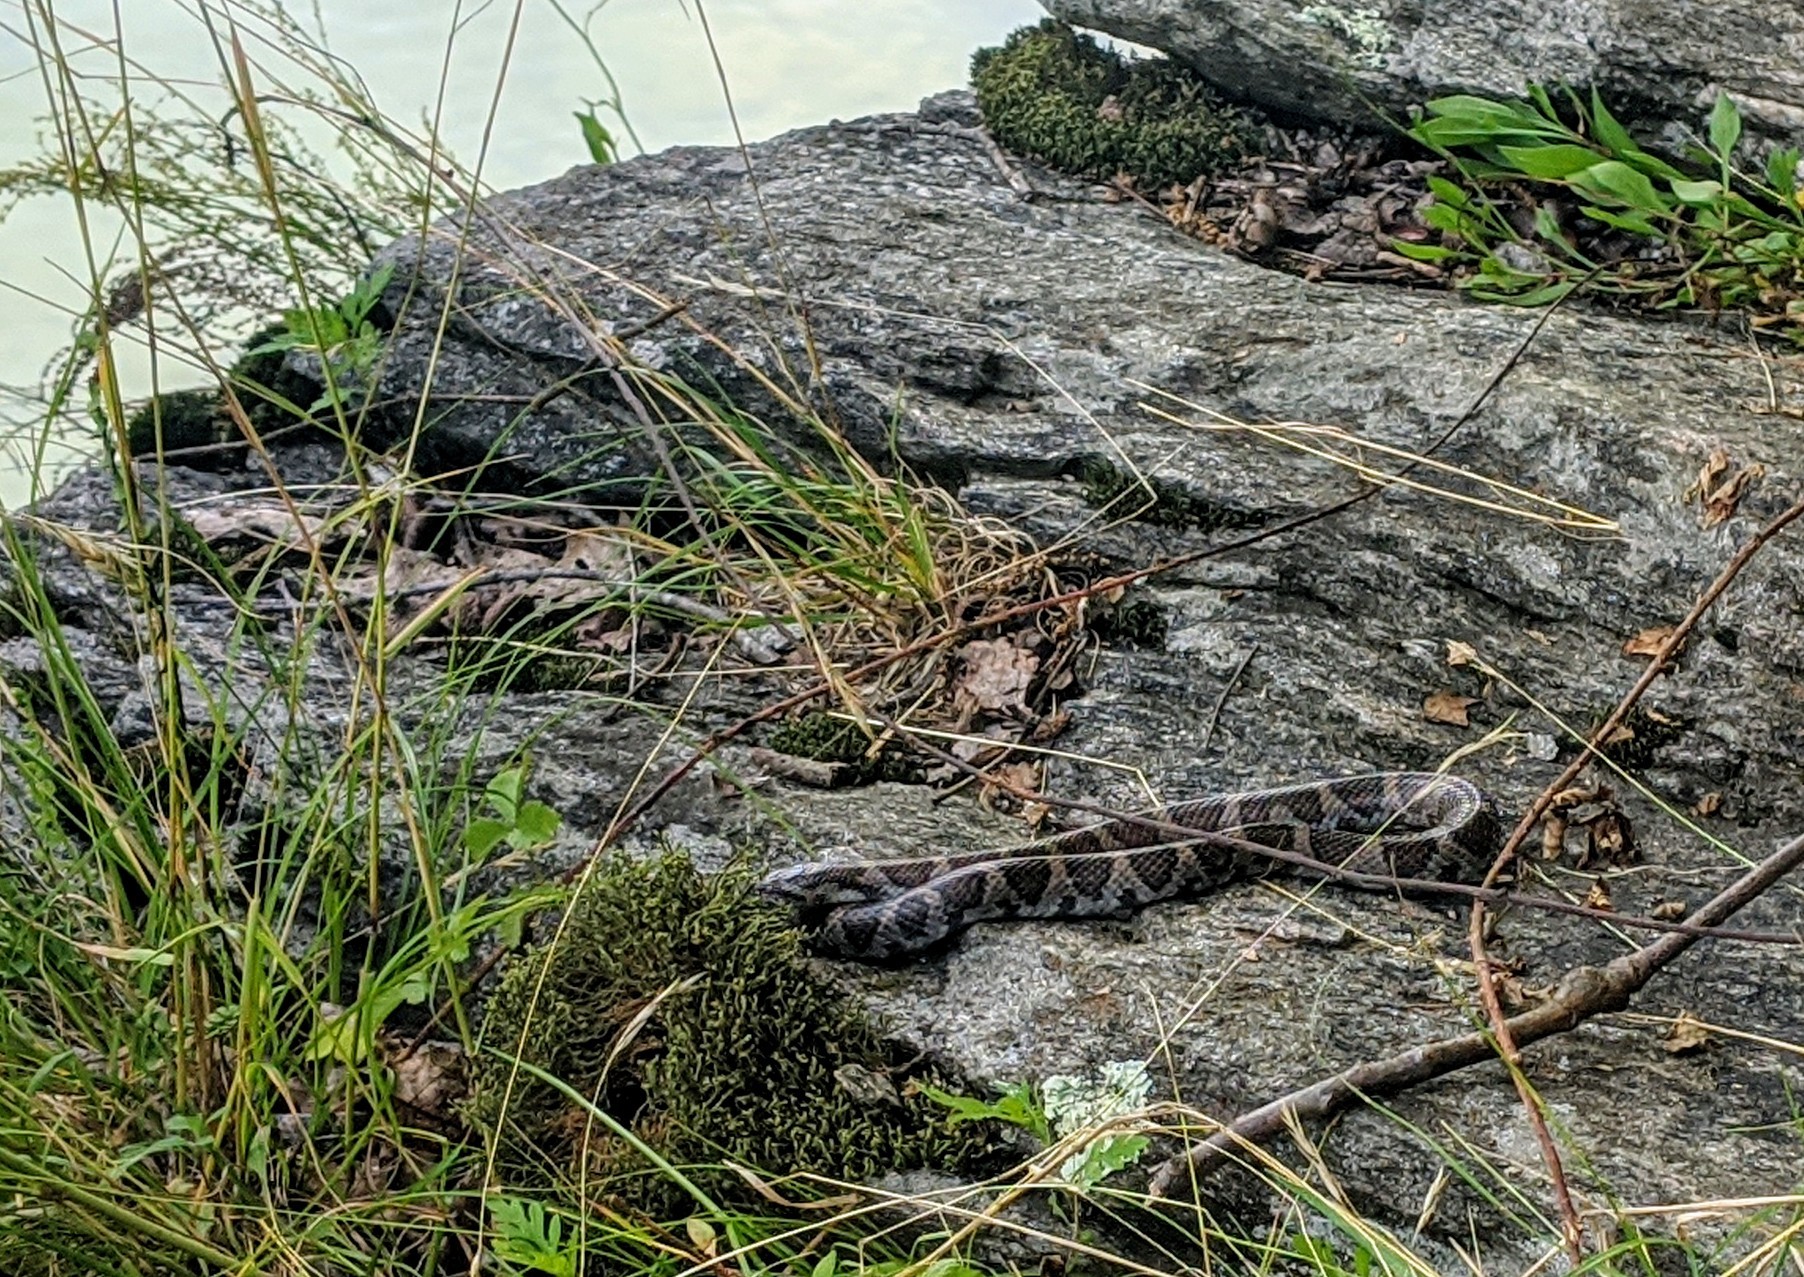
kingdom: Animalia
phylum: Chordata
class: Squamata
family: Colubridae
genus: Lampropeltis
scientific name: Lampropeltis triangulum
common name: Eastern milksnake
